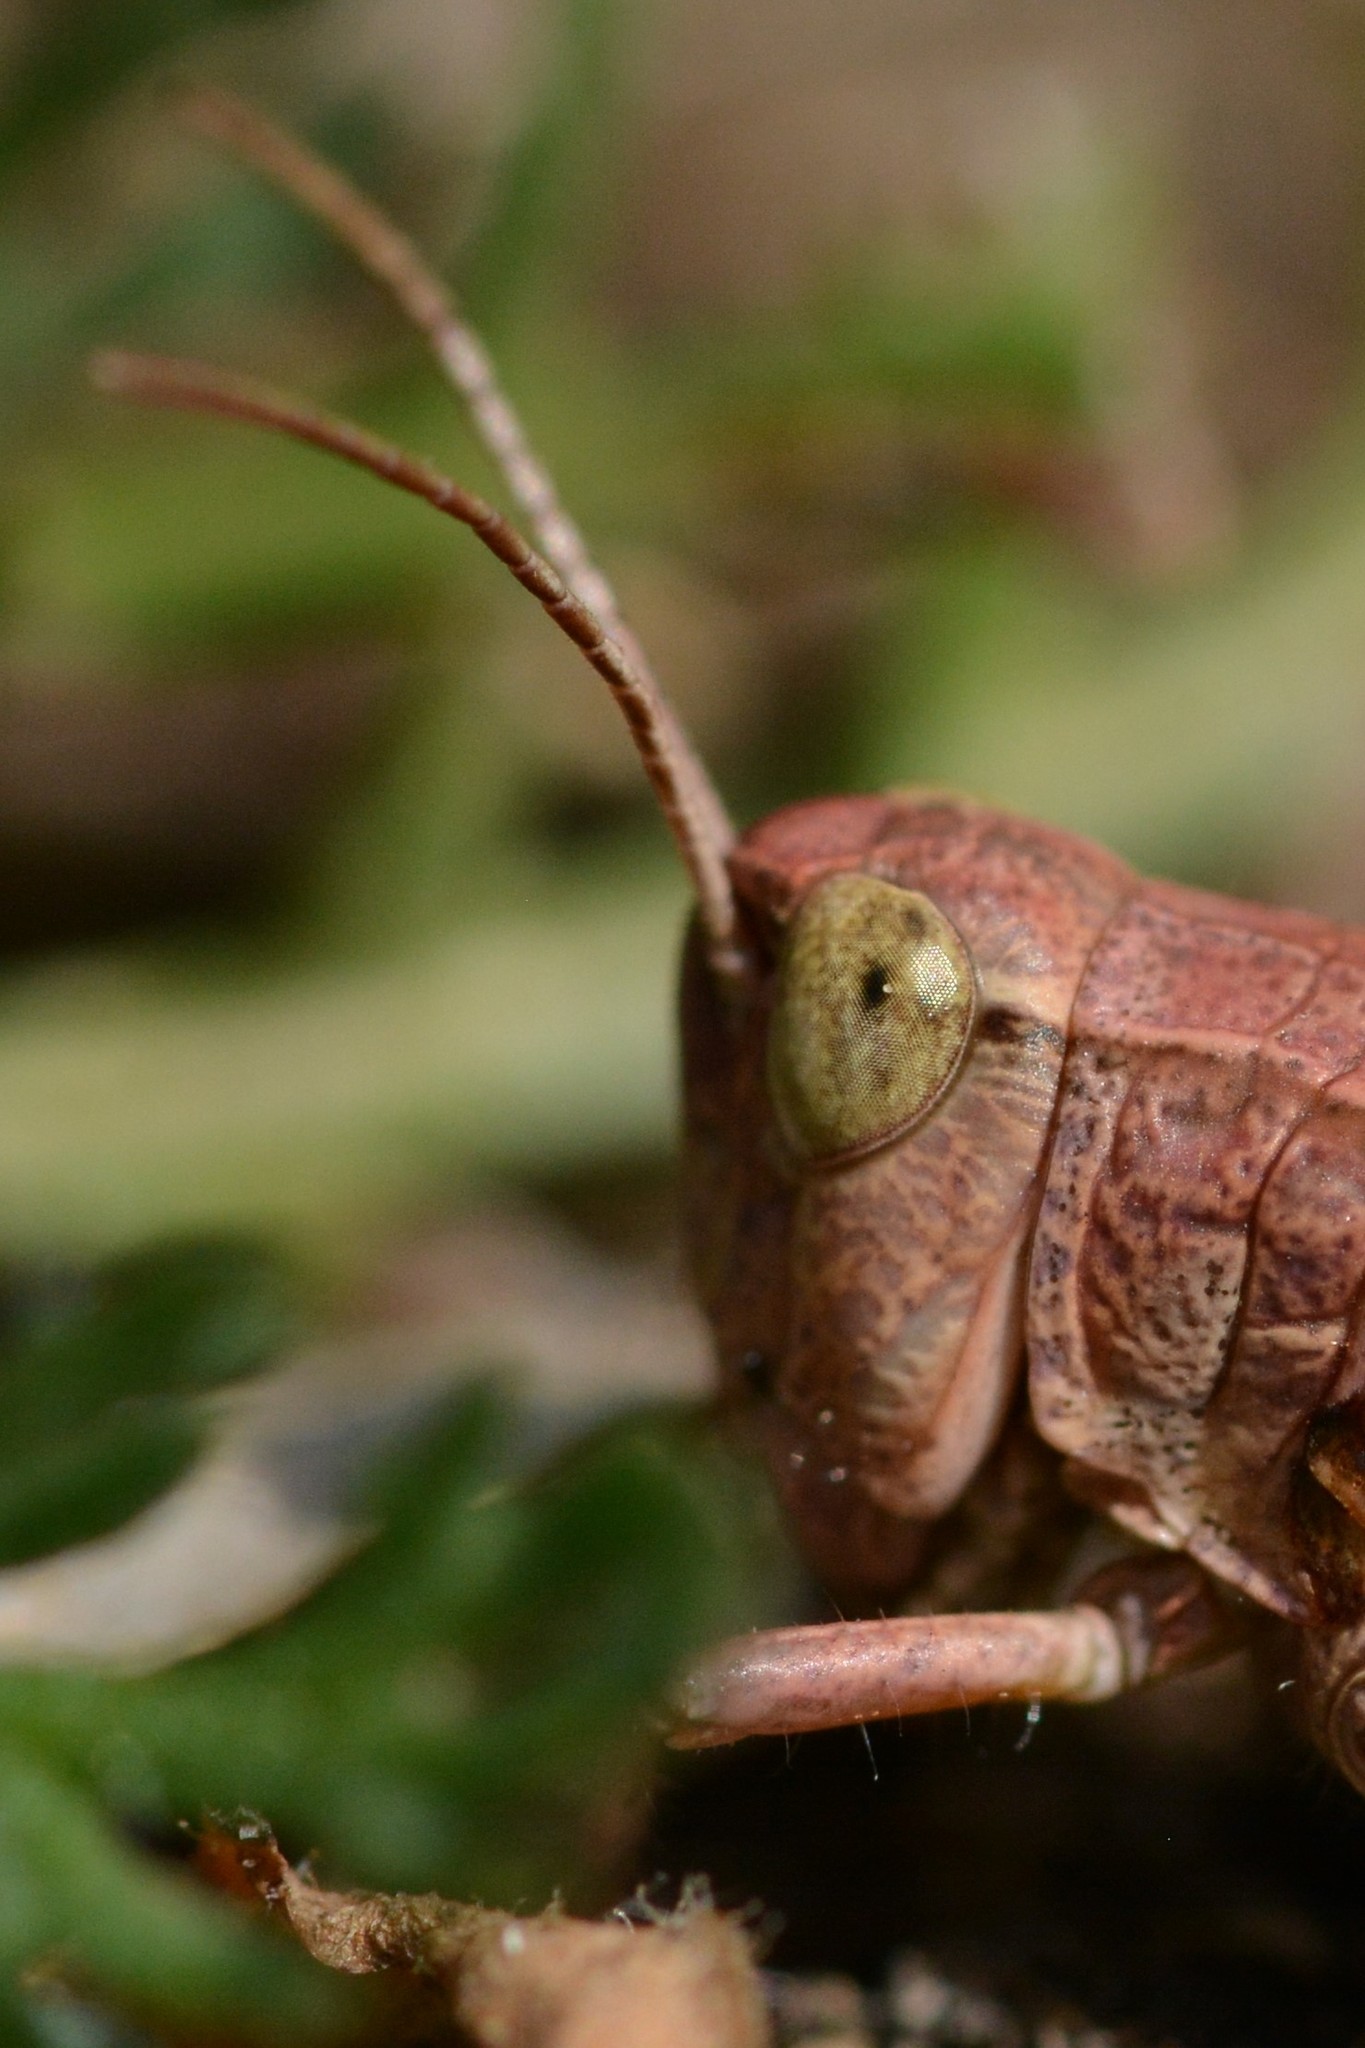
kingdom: Animalia
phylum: Arthropoda
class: Insecta
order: Orthoptera
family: Acrididae
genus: Phaulacridium
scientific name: Phaulacridium marginale
